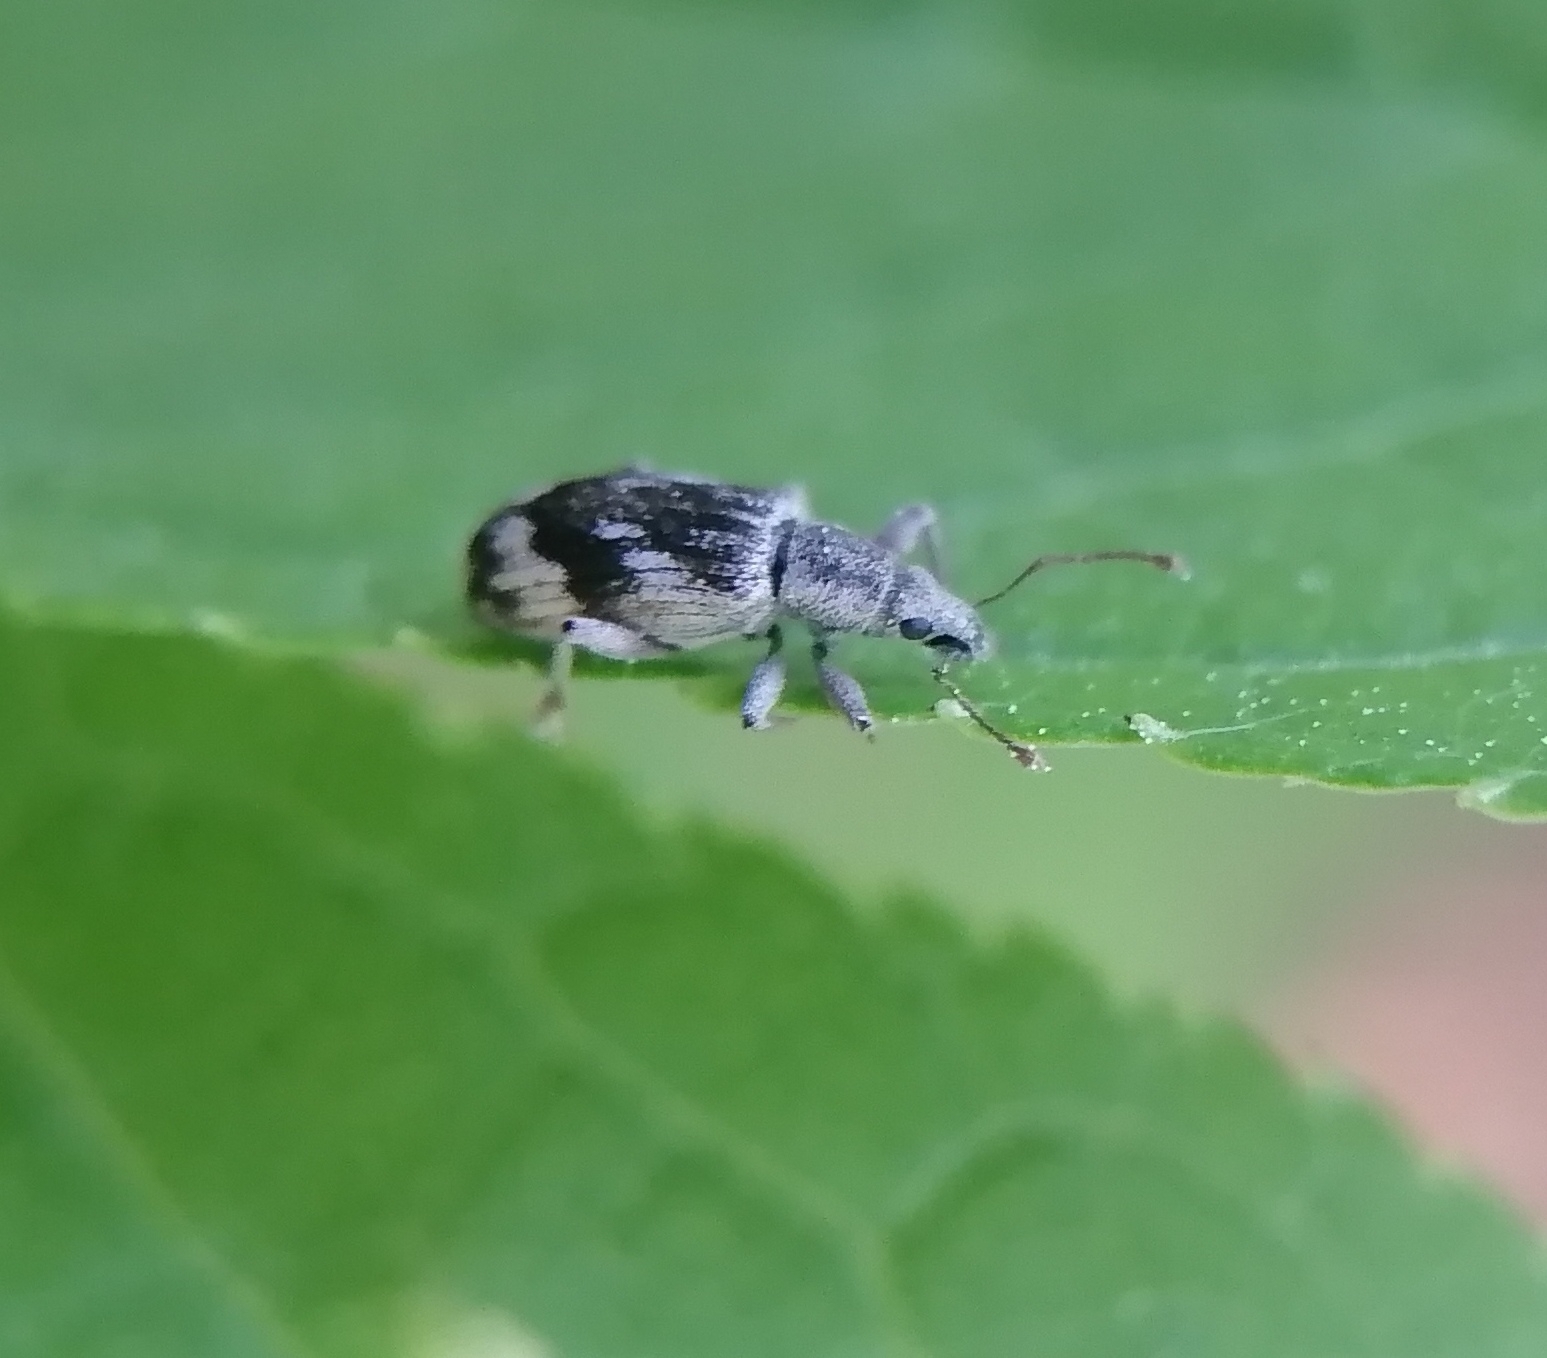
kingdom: Animalia
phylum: Arthropoda
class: Insecta
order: Coleoptera
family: Curculionidae
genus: Polydrusus
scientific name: Polydrusus tereticollis
